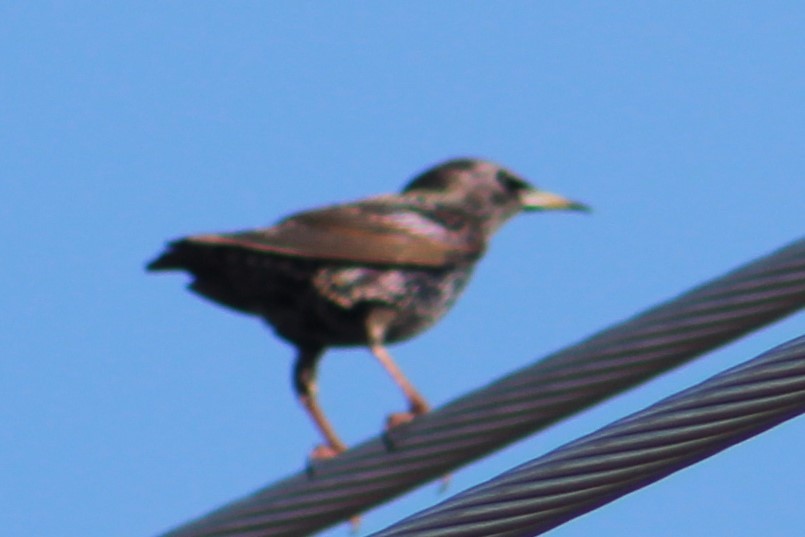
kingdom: Animalia
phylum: Chordata
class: Aves
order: Passeriformes
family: Sturnidae
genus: Sturnus
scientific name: Sturnus vulgaris
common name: Common starling
